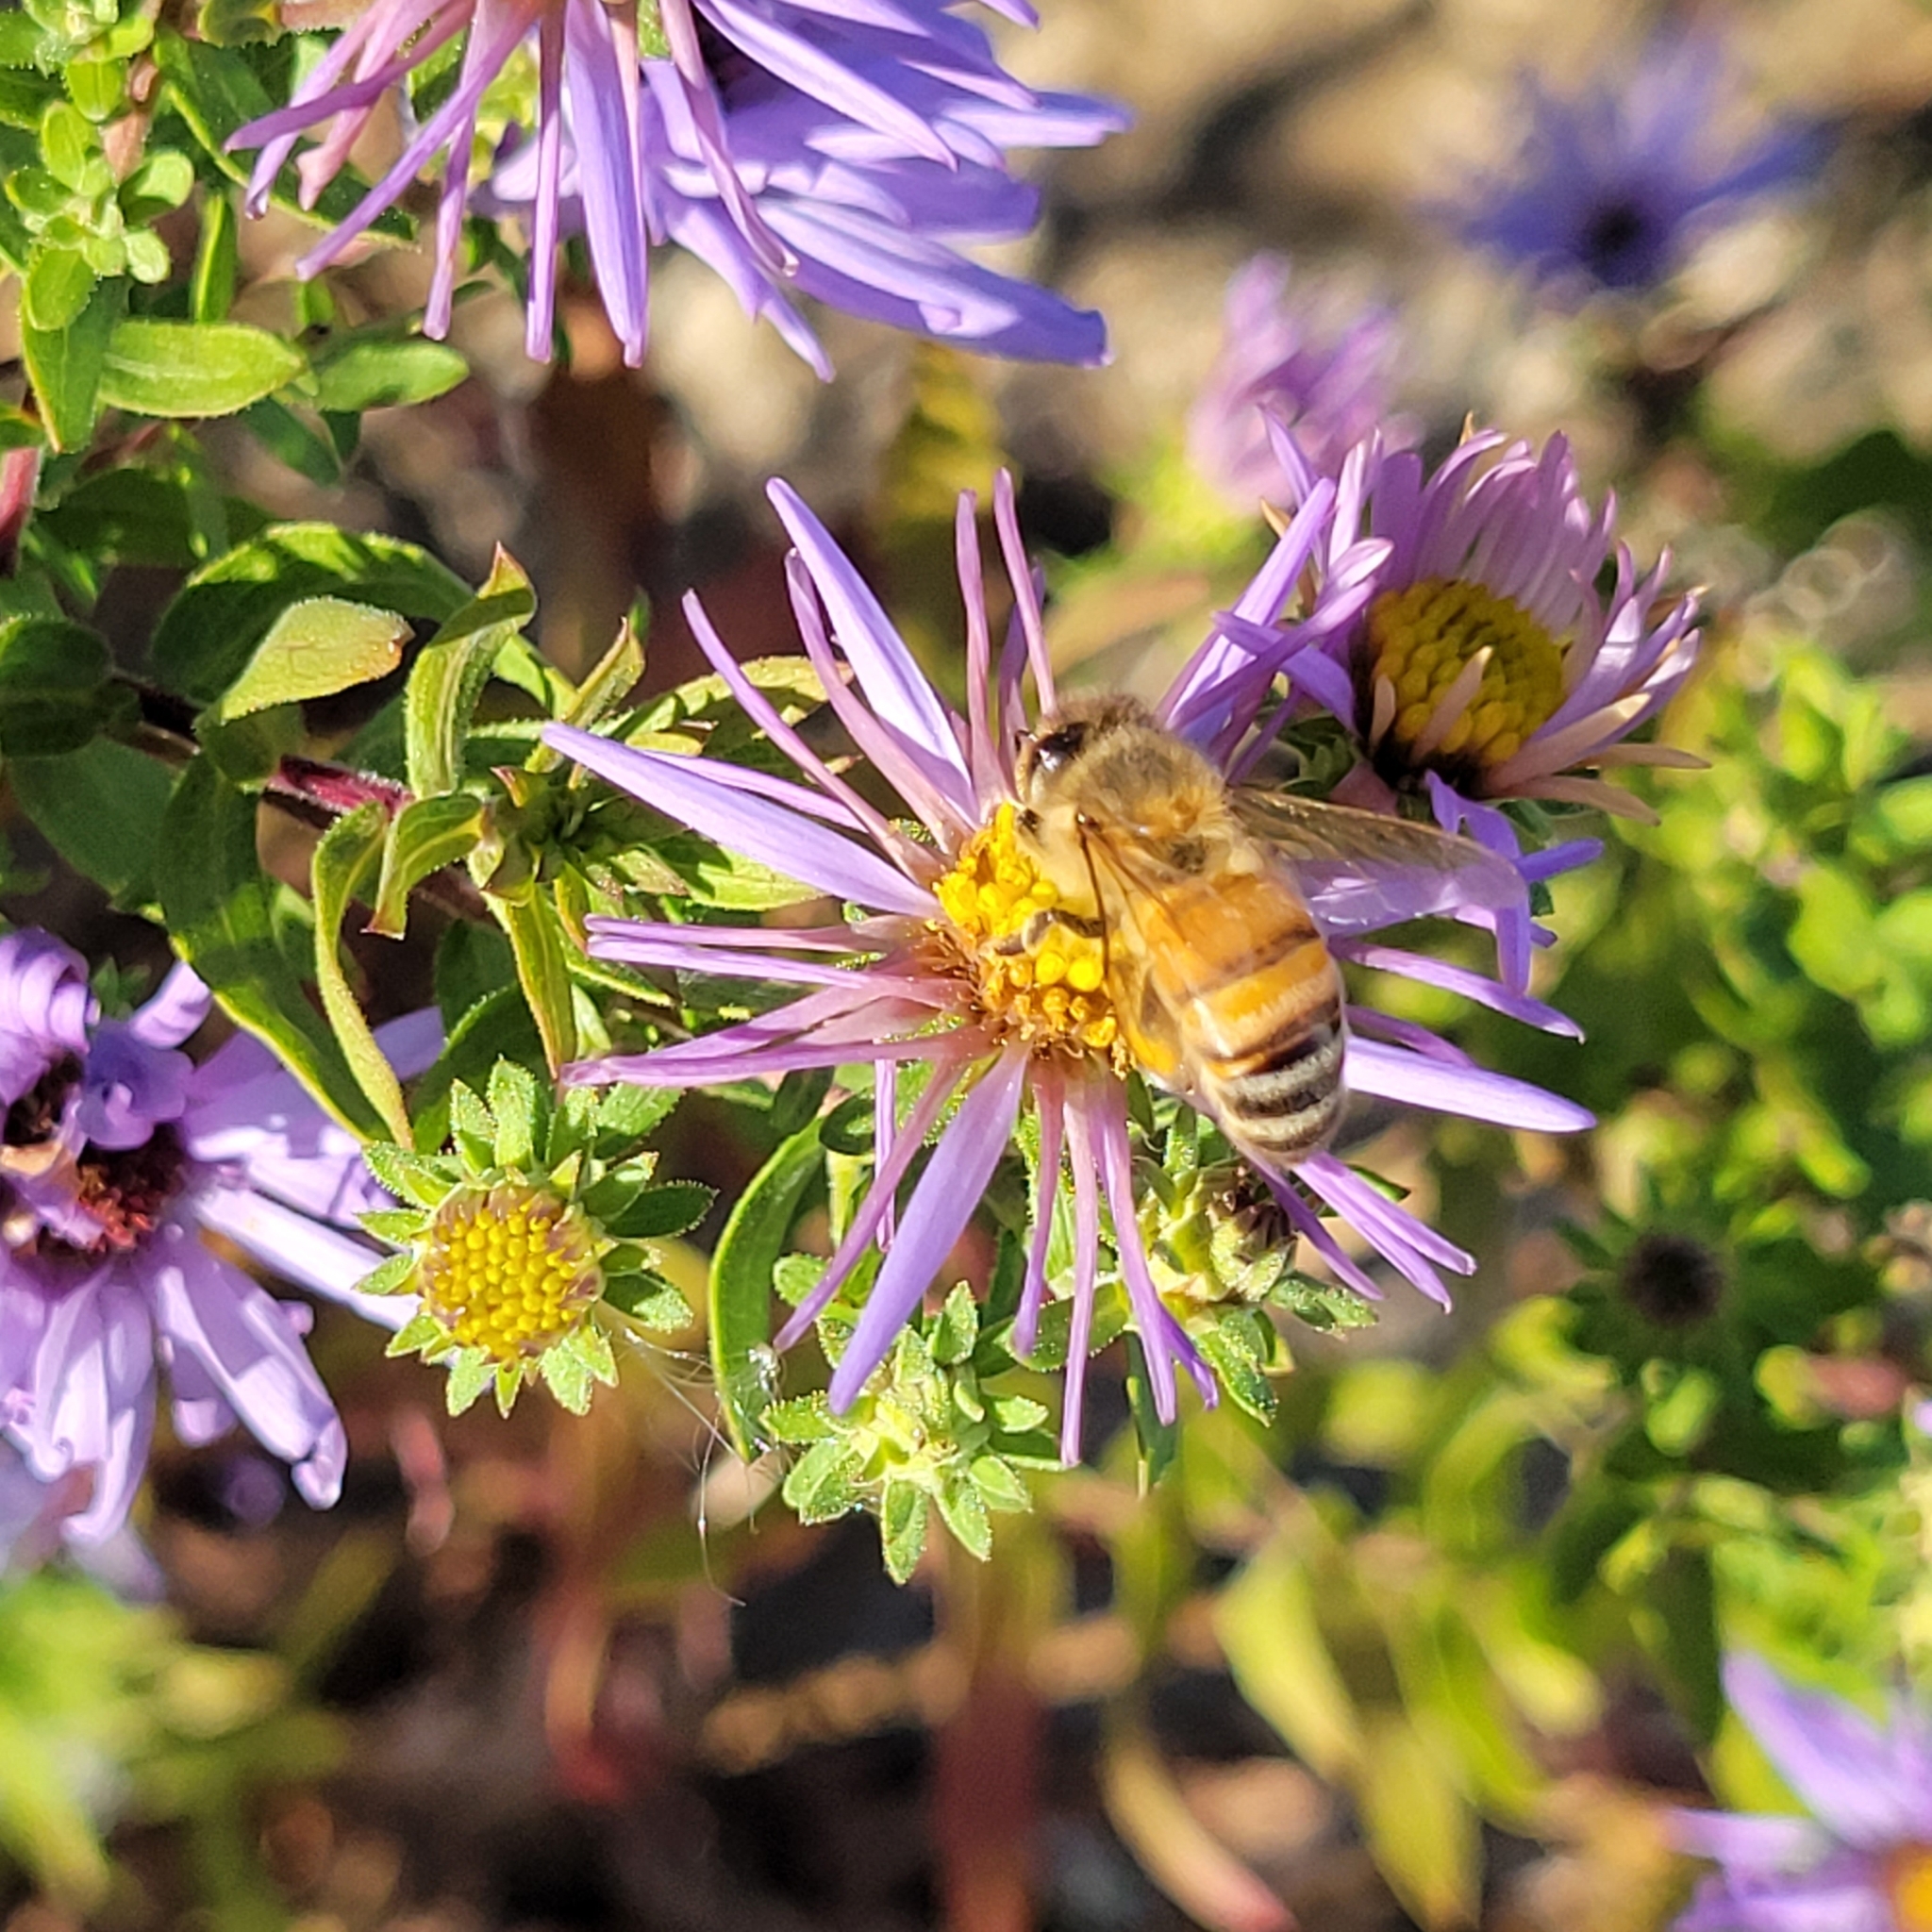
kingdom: Animalia
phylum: Arthropoda
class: Insecta
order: Hymenoptera
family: Apidae
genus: Apis
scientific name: Apis mellifera
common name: Honey bee
